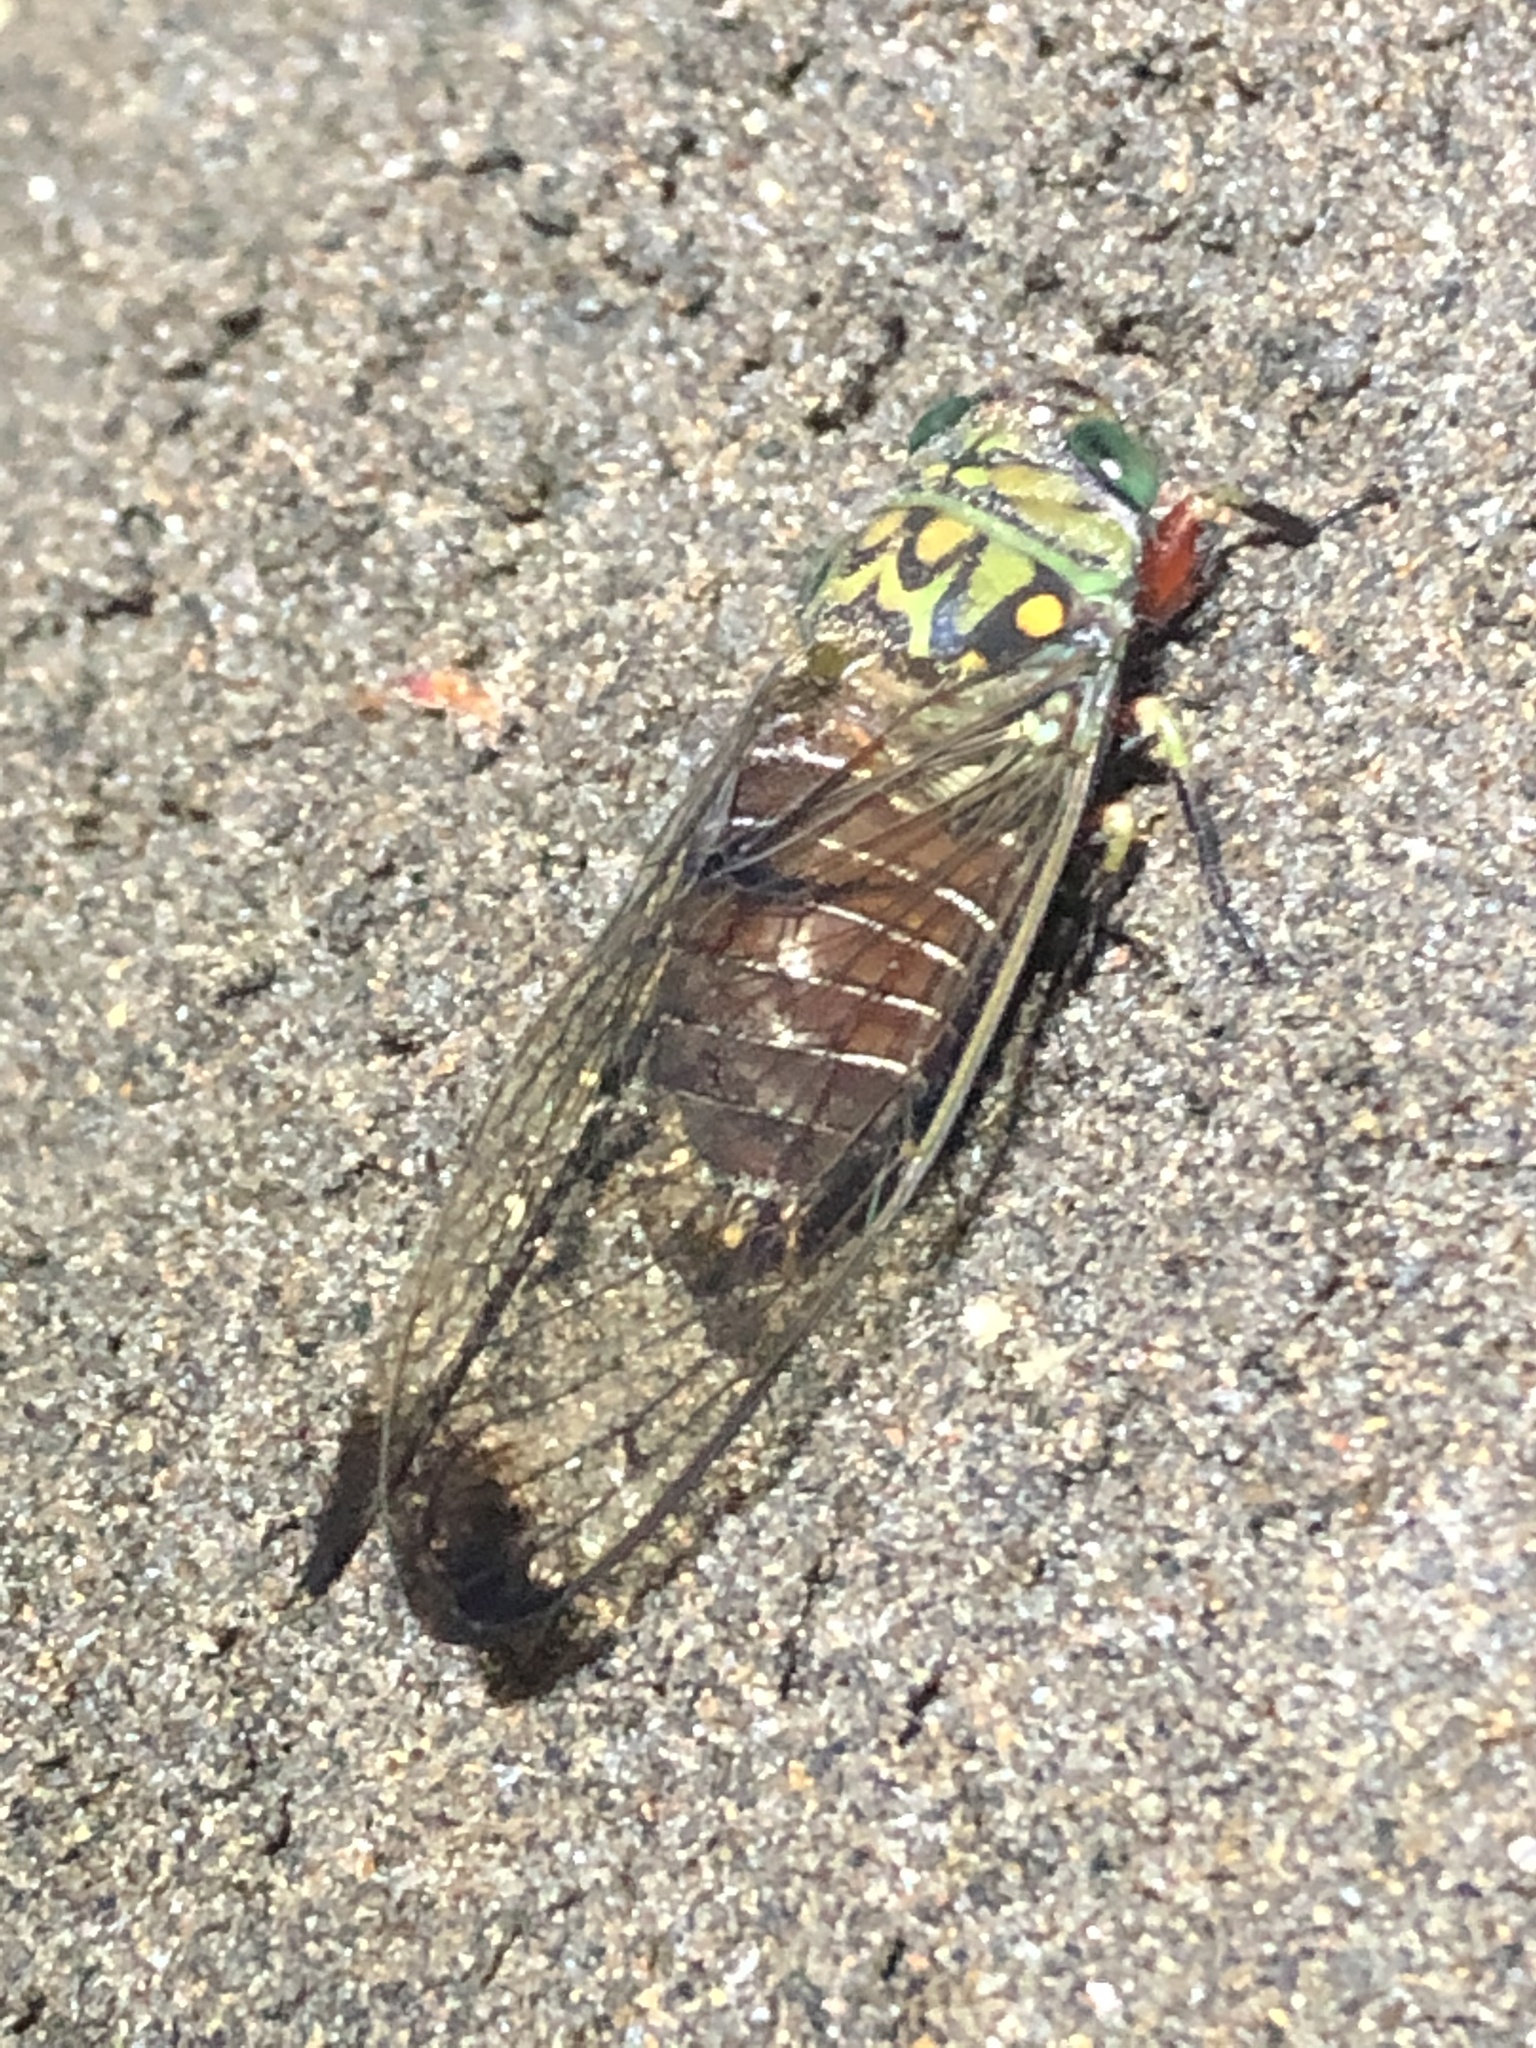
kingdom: Animalia
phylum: Arthropoda
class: Insecta
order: Hemiptera
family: Cicadidae
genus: Carineta
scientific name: Carineta argentea
